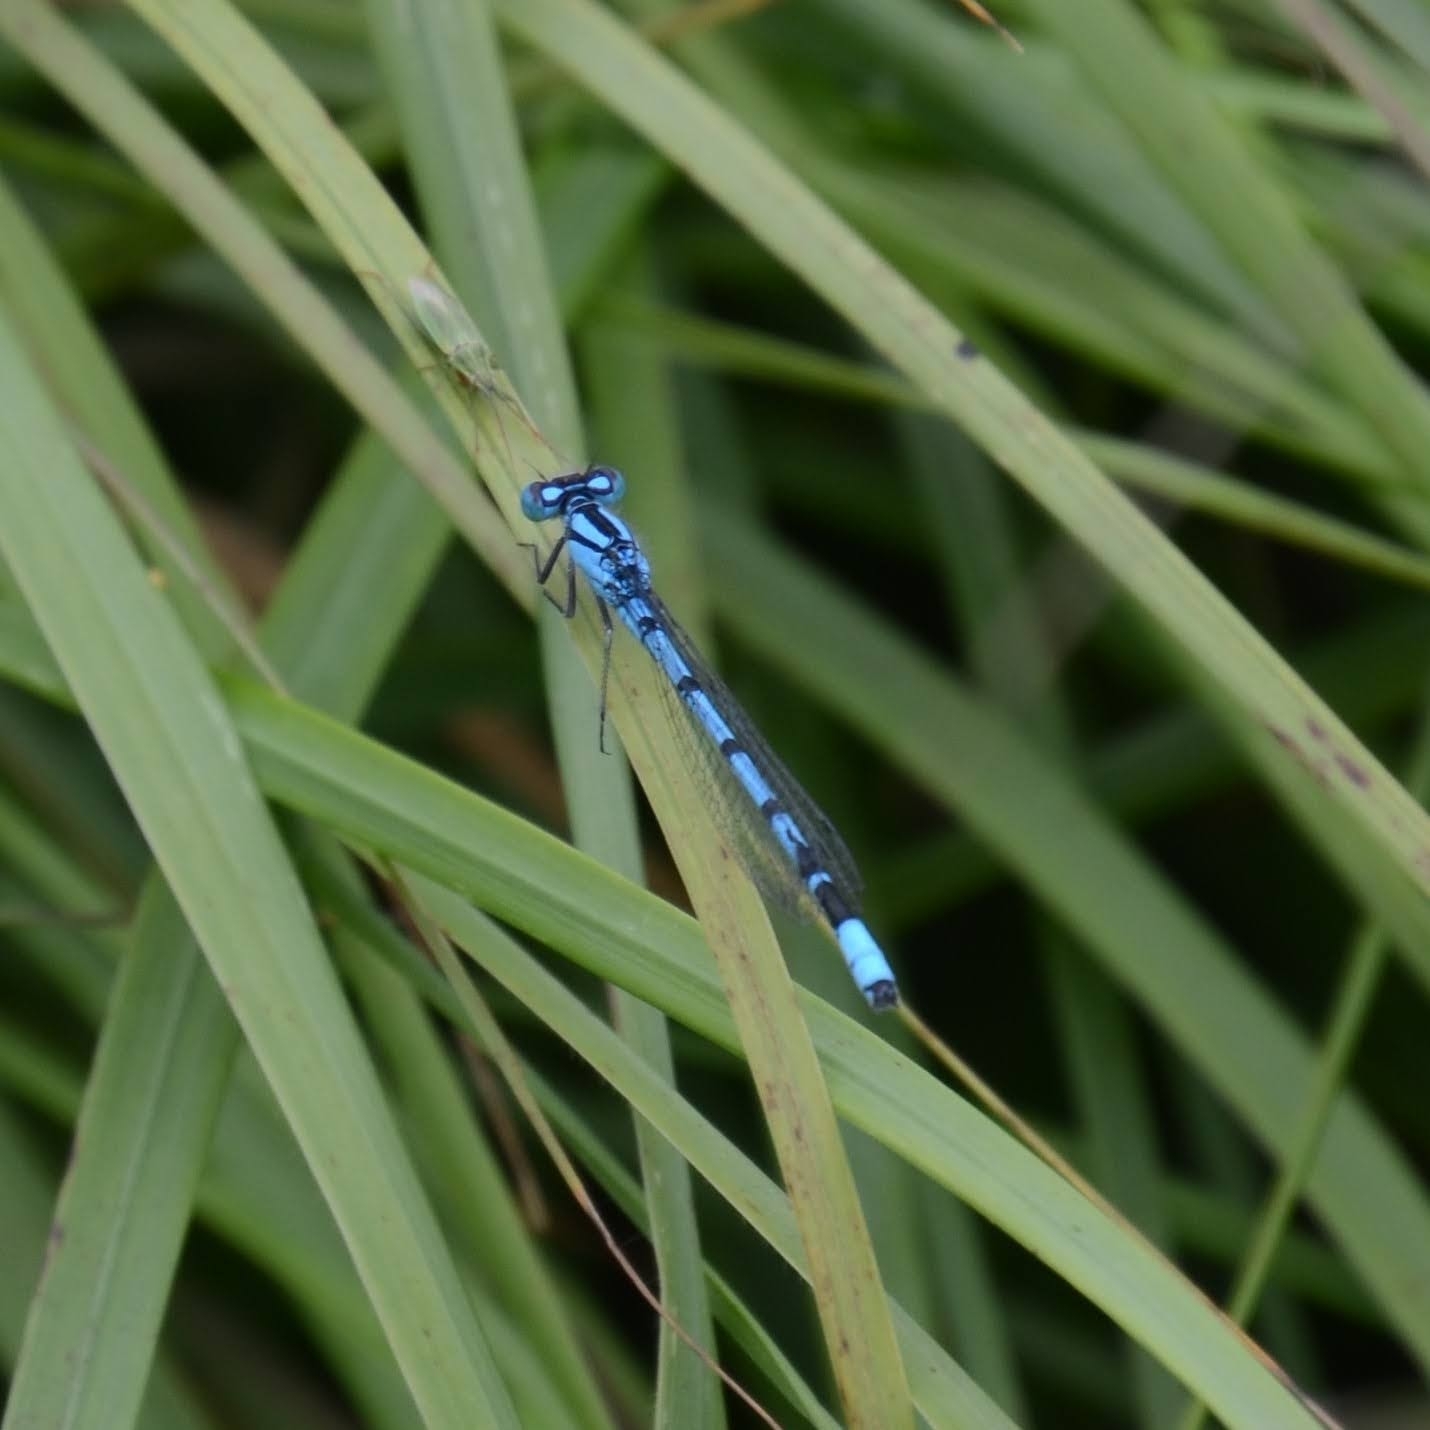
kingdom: Animalia
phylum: Arthropoda
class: Insecta
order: Odonata
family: Coenagrionidae
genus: Enallagma
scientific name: Enallagma cyathigerum
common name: Common blue damselfly
